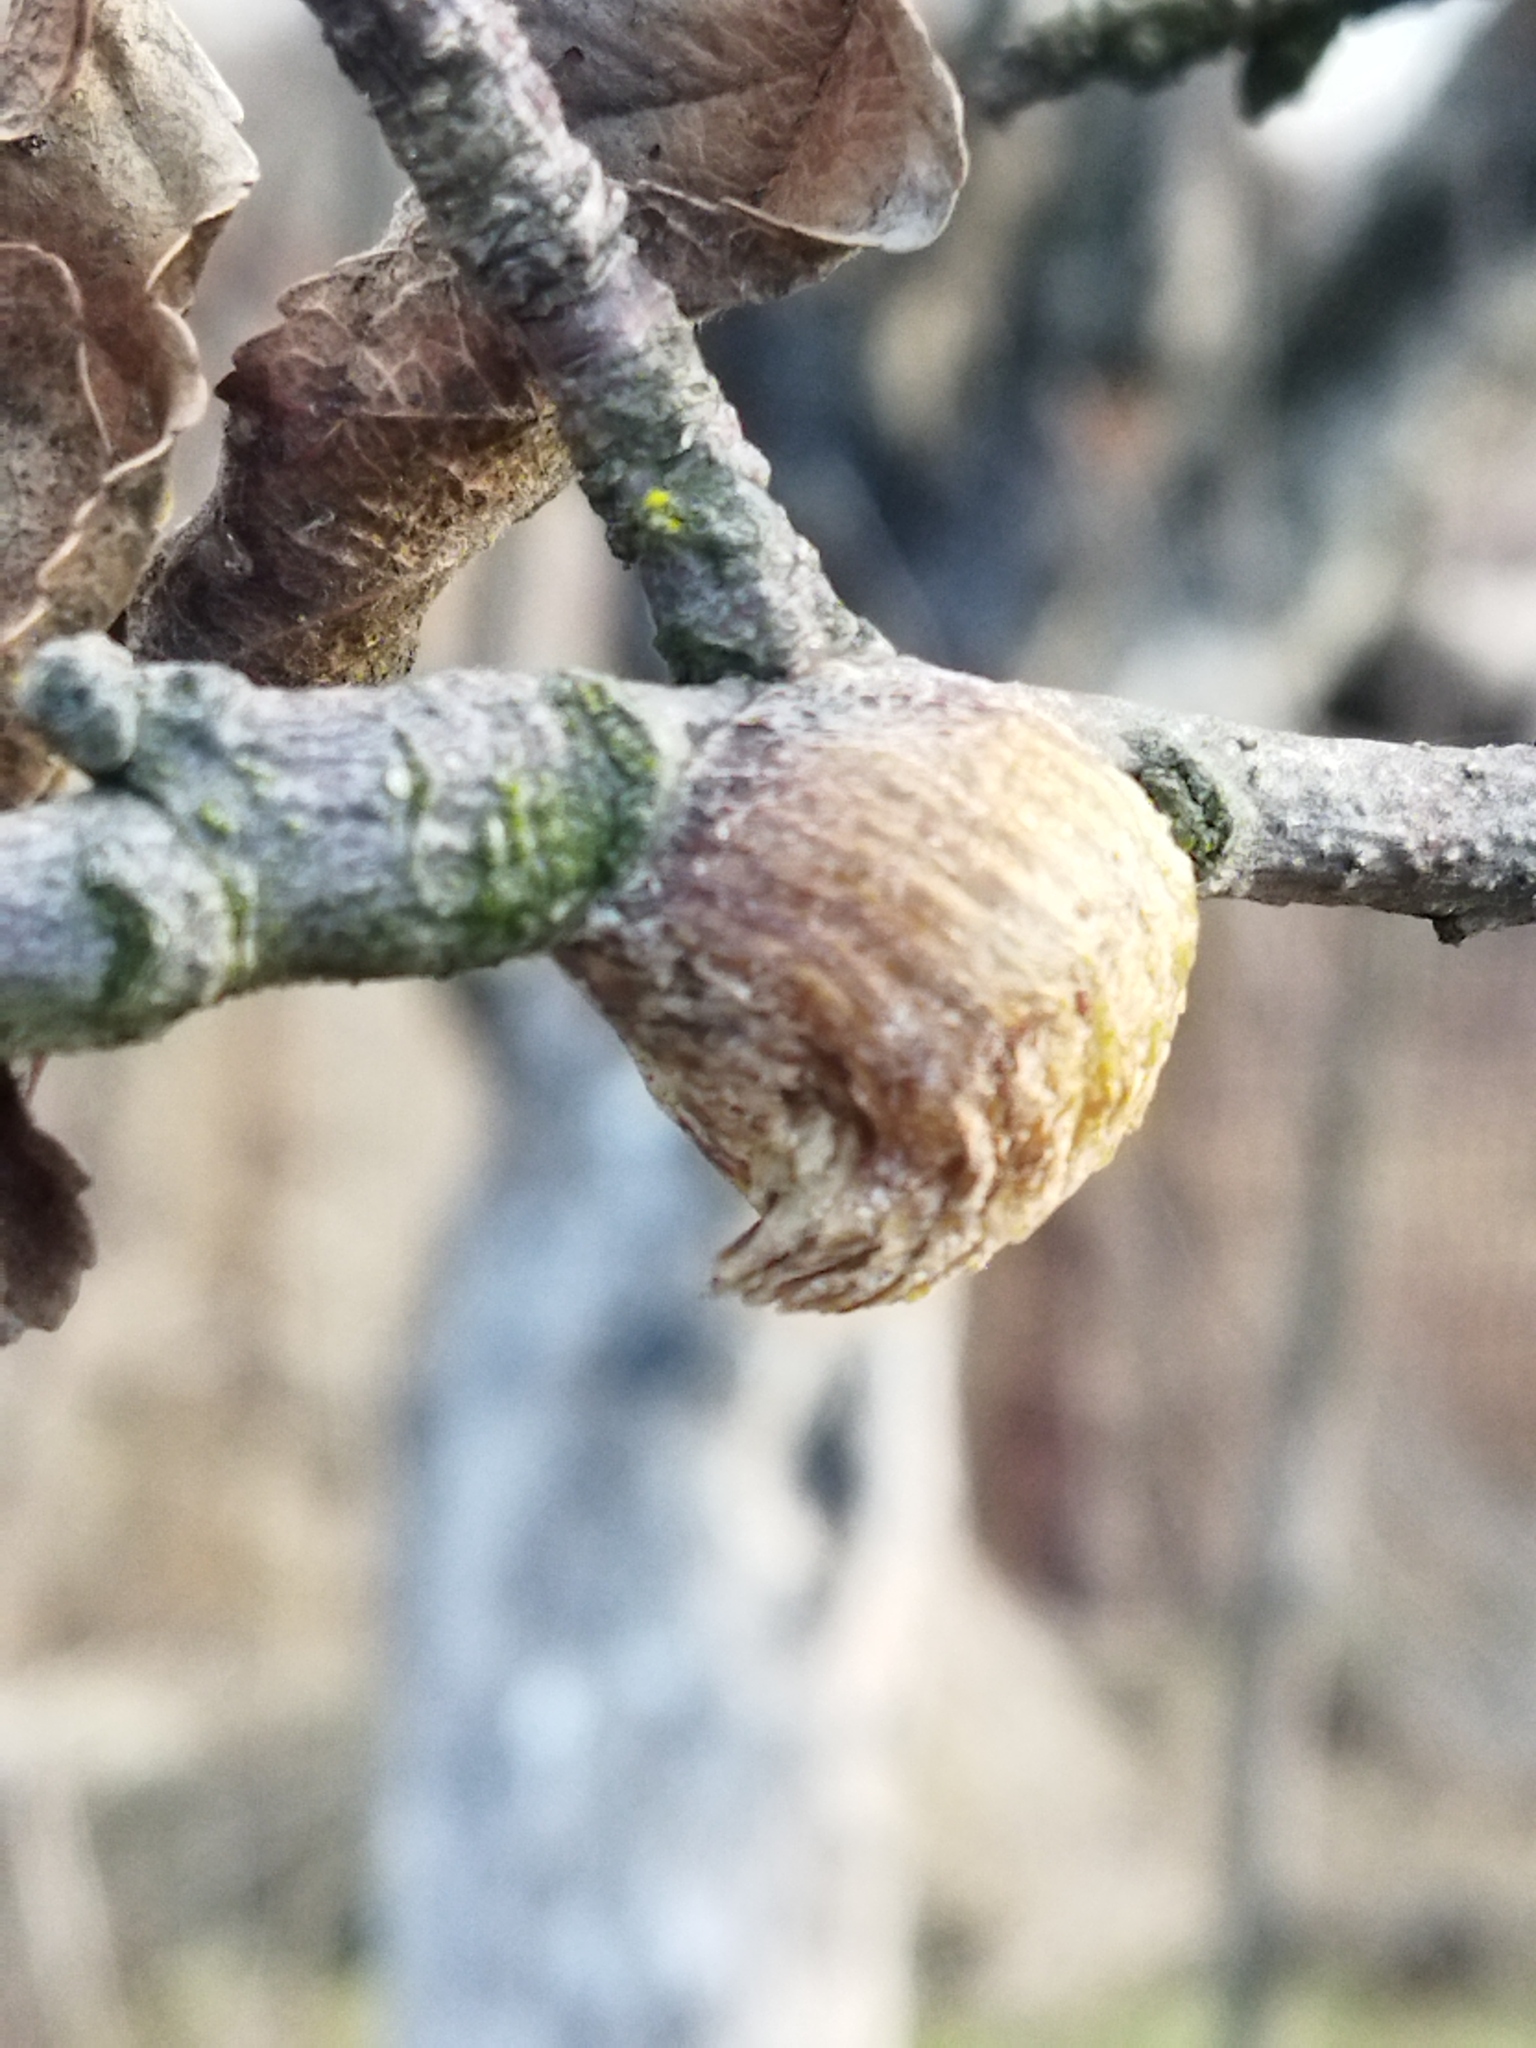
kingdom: Animalia
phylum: Arthropoda
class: Insecta
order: Mantodea
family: Mantidae
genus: Hierodula
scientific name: Hierodula transcaucasica
